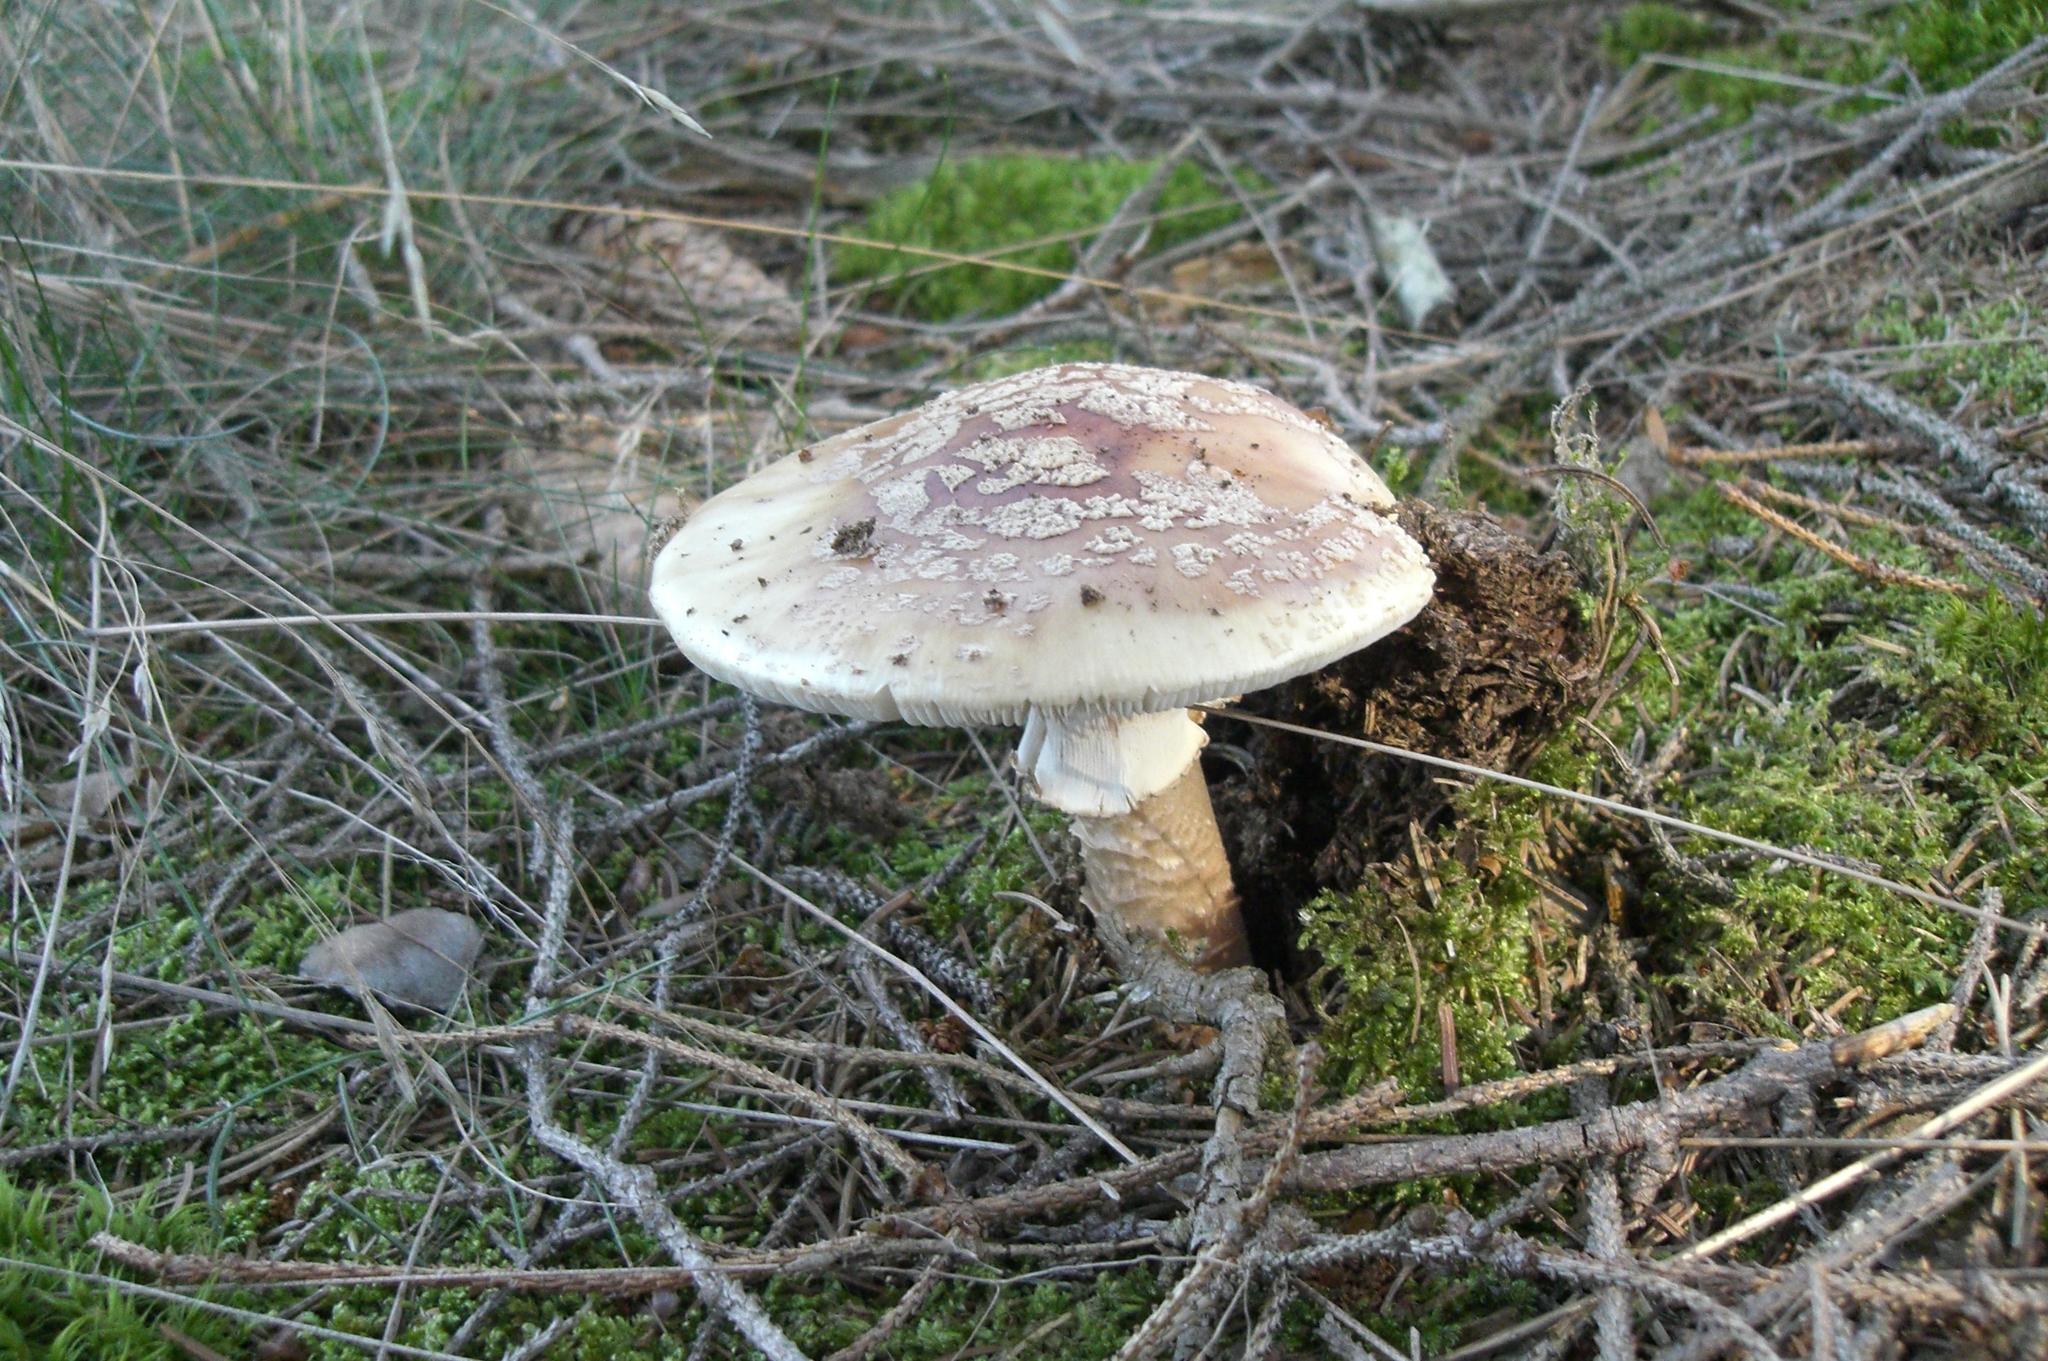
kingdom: Fungi
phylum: Basidiomycota
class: Agaricomycetes
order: Agaricales
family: Amanitaceae
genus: Amanita
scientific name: Amanita rubescens
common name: Blusher
